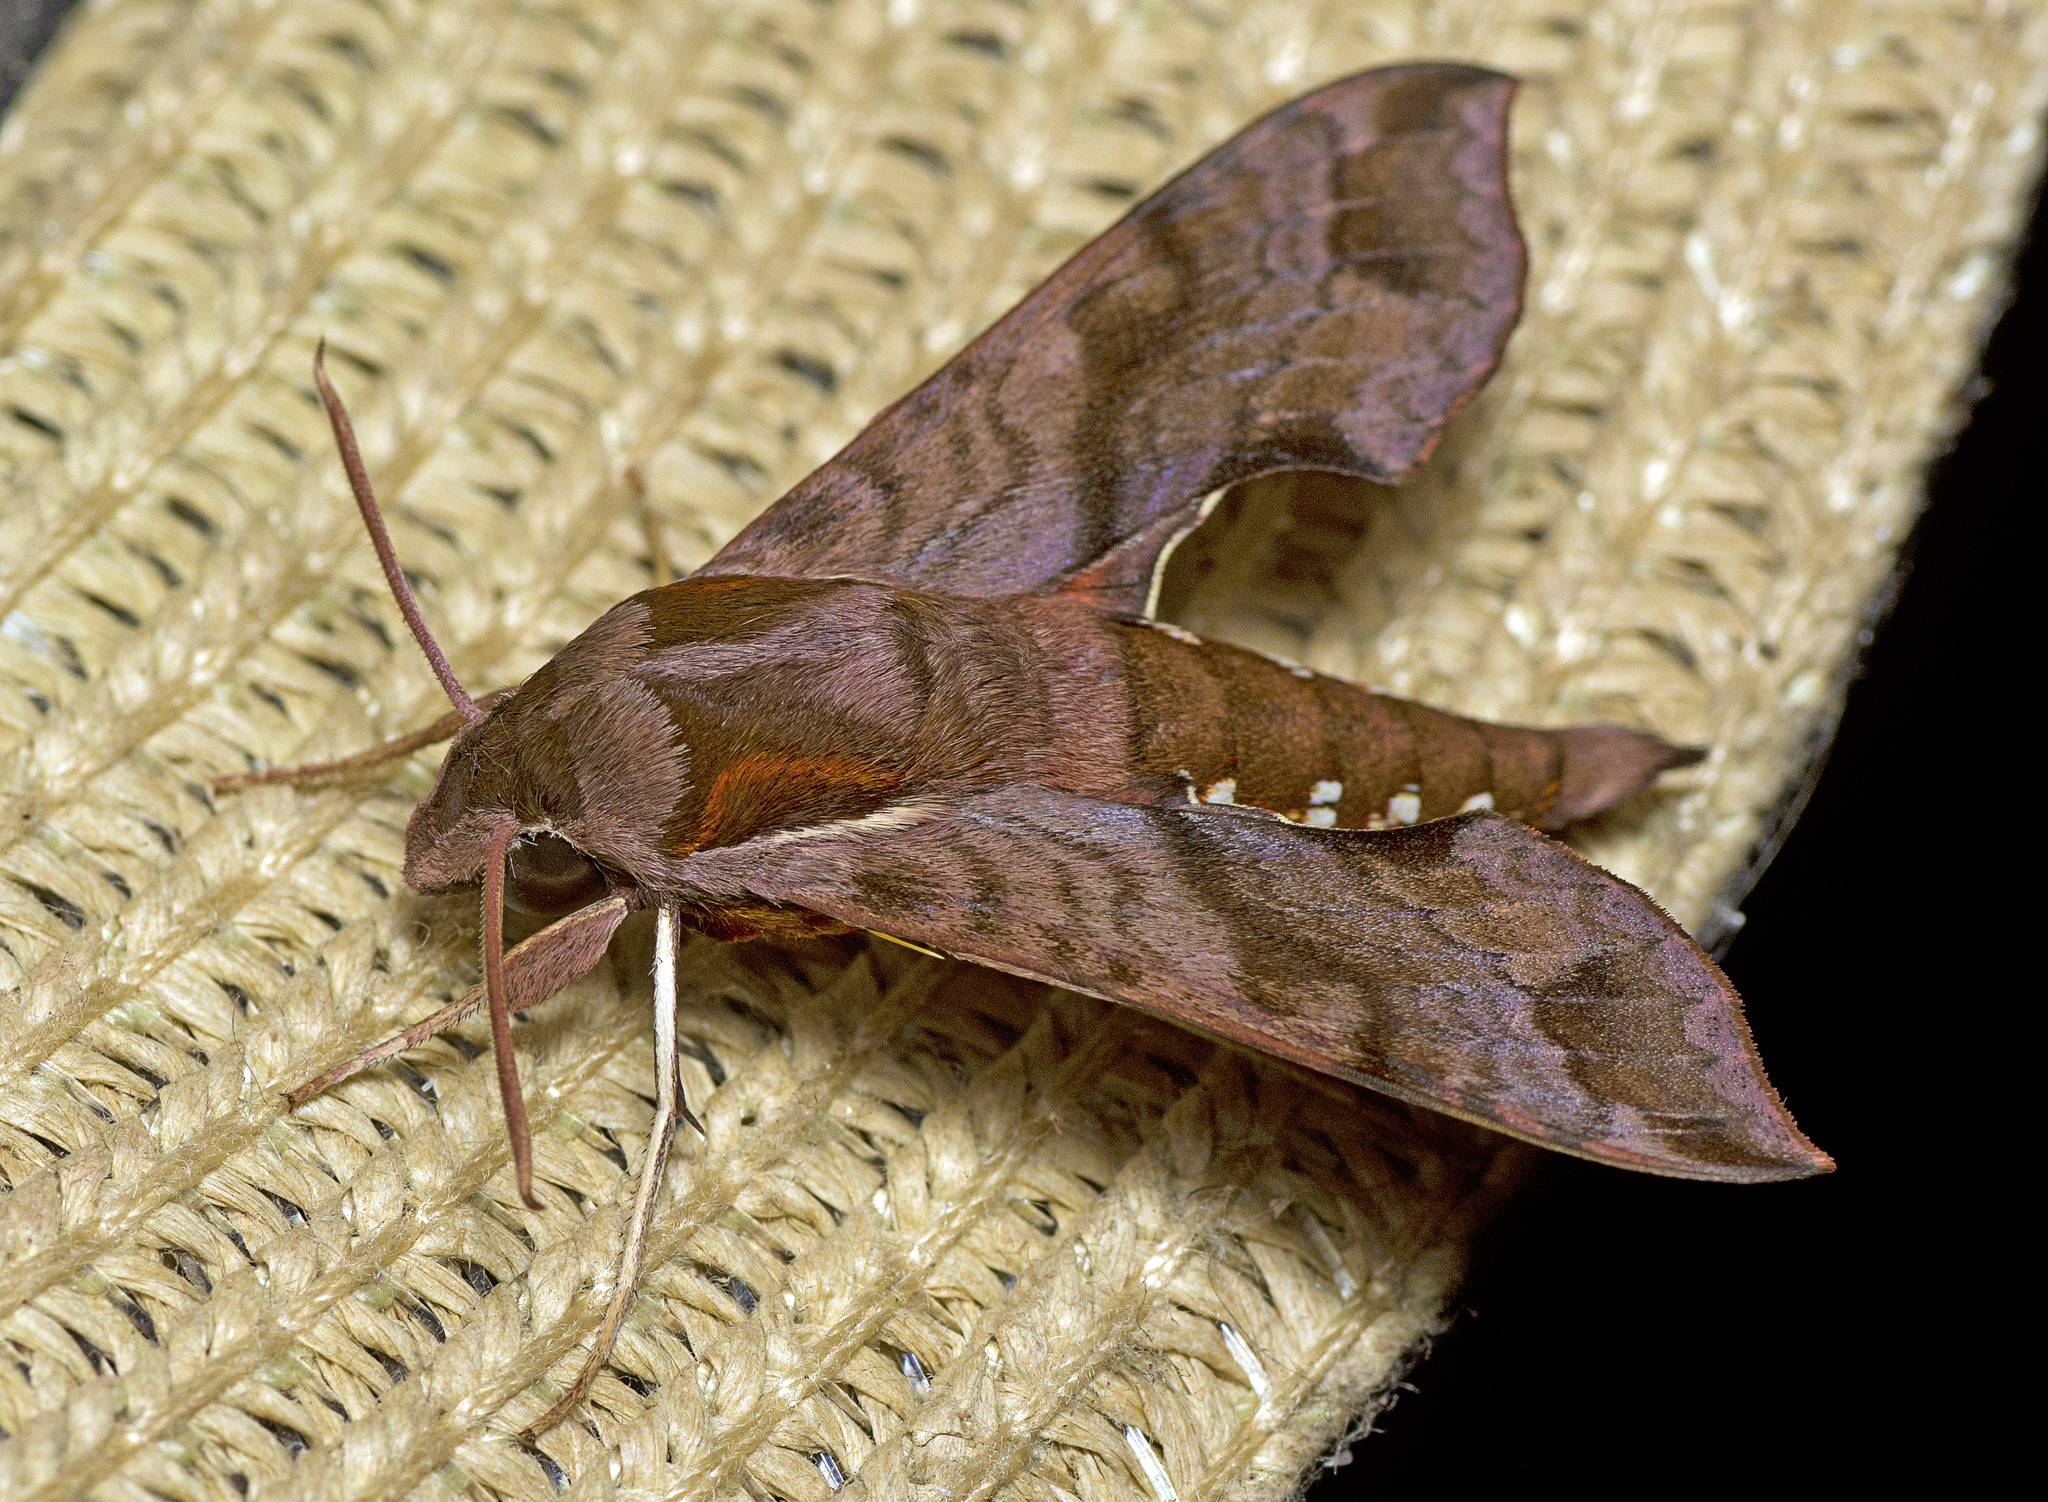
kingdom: Animalia
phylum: Arthropoda
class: Insecta
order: Lepidoptera
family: Sphingidae
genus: Hippotion
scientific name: Hippotion brennus
